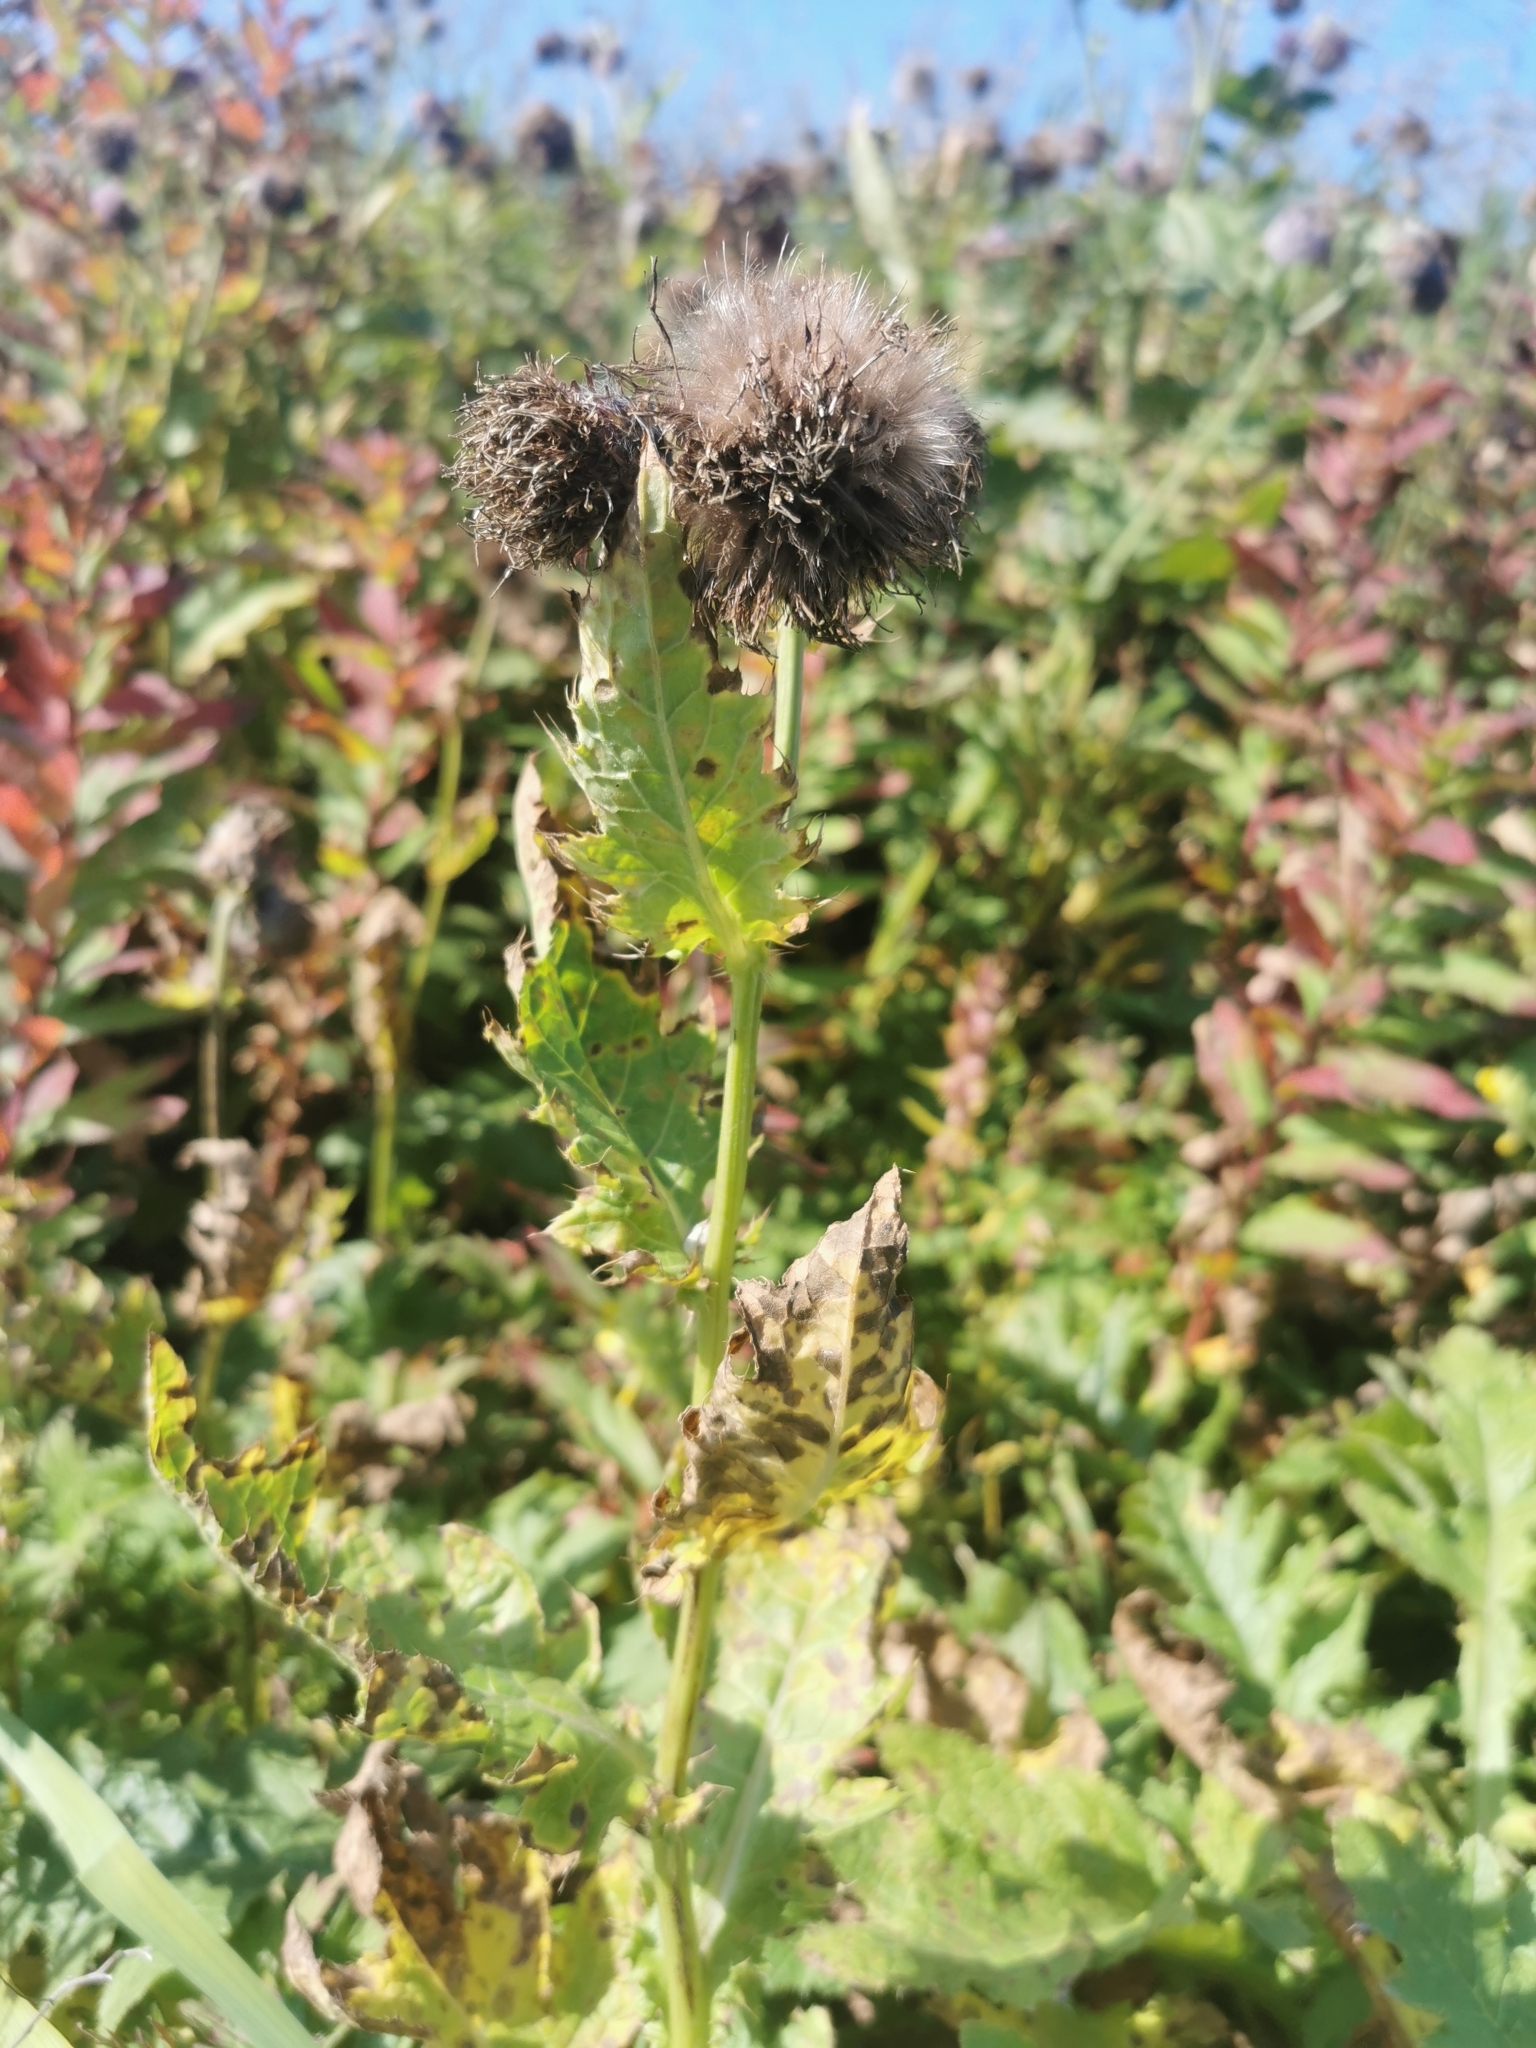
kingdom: Plantae
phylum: Tracheophyta
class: Magnoliopsida
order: Asterales
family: Asteraceae
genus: Cirsium
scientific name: Cirsium kamtschaticum
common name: Kamchatka thistle
